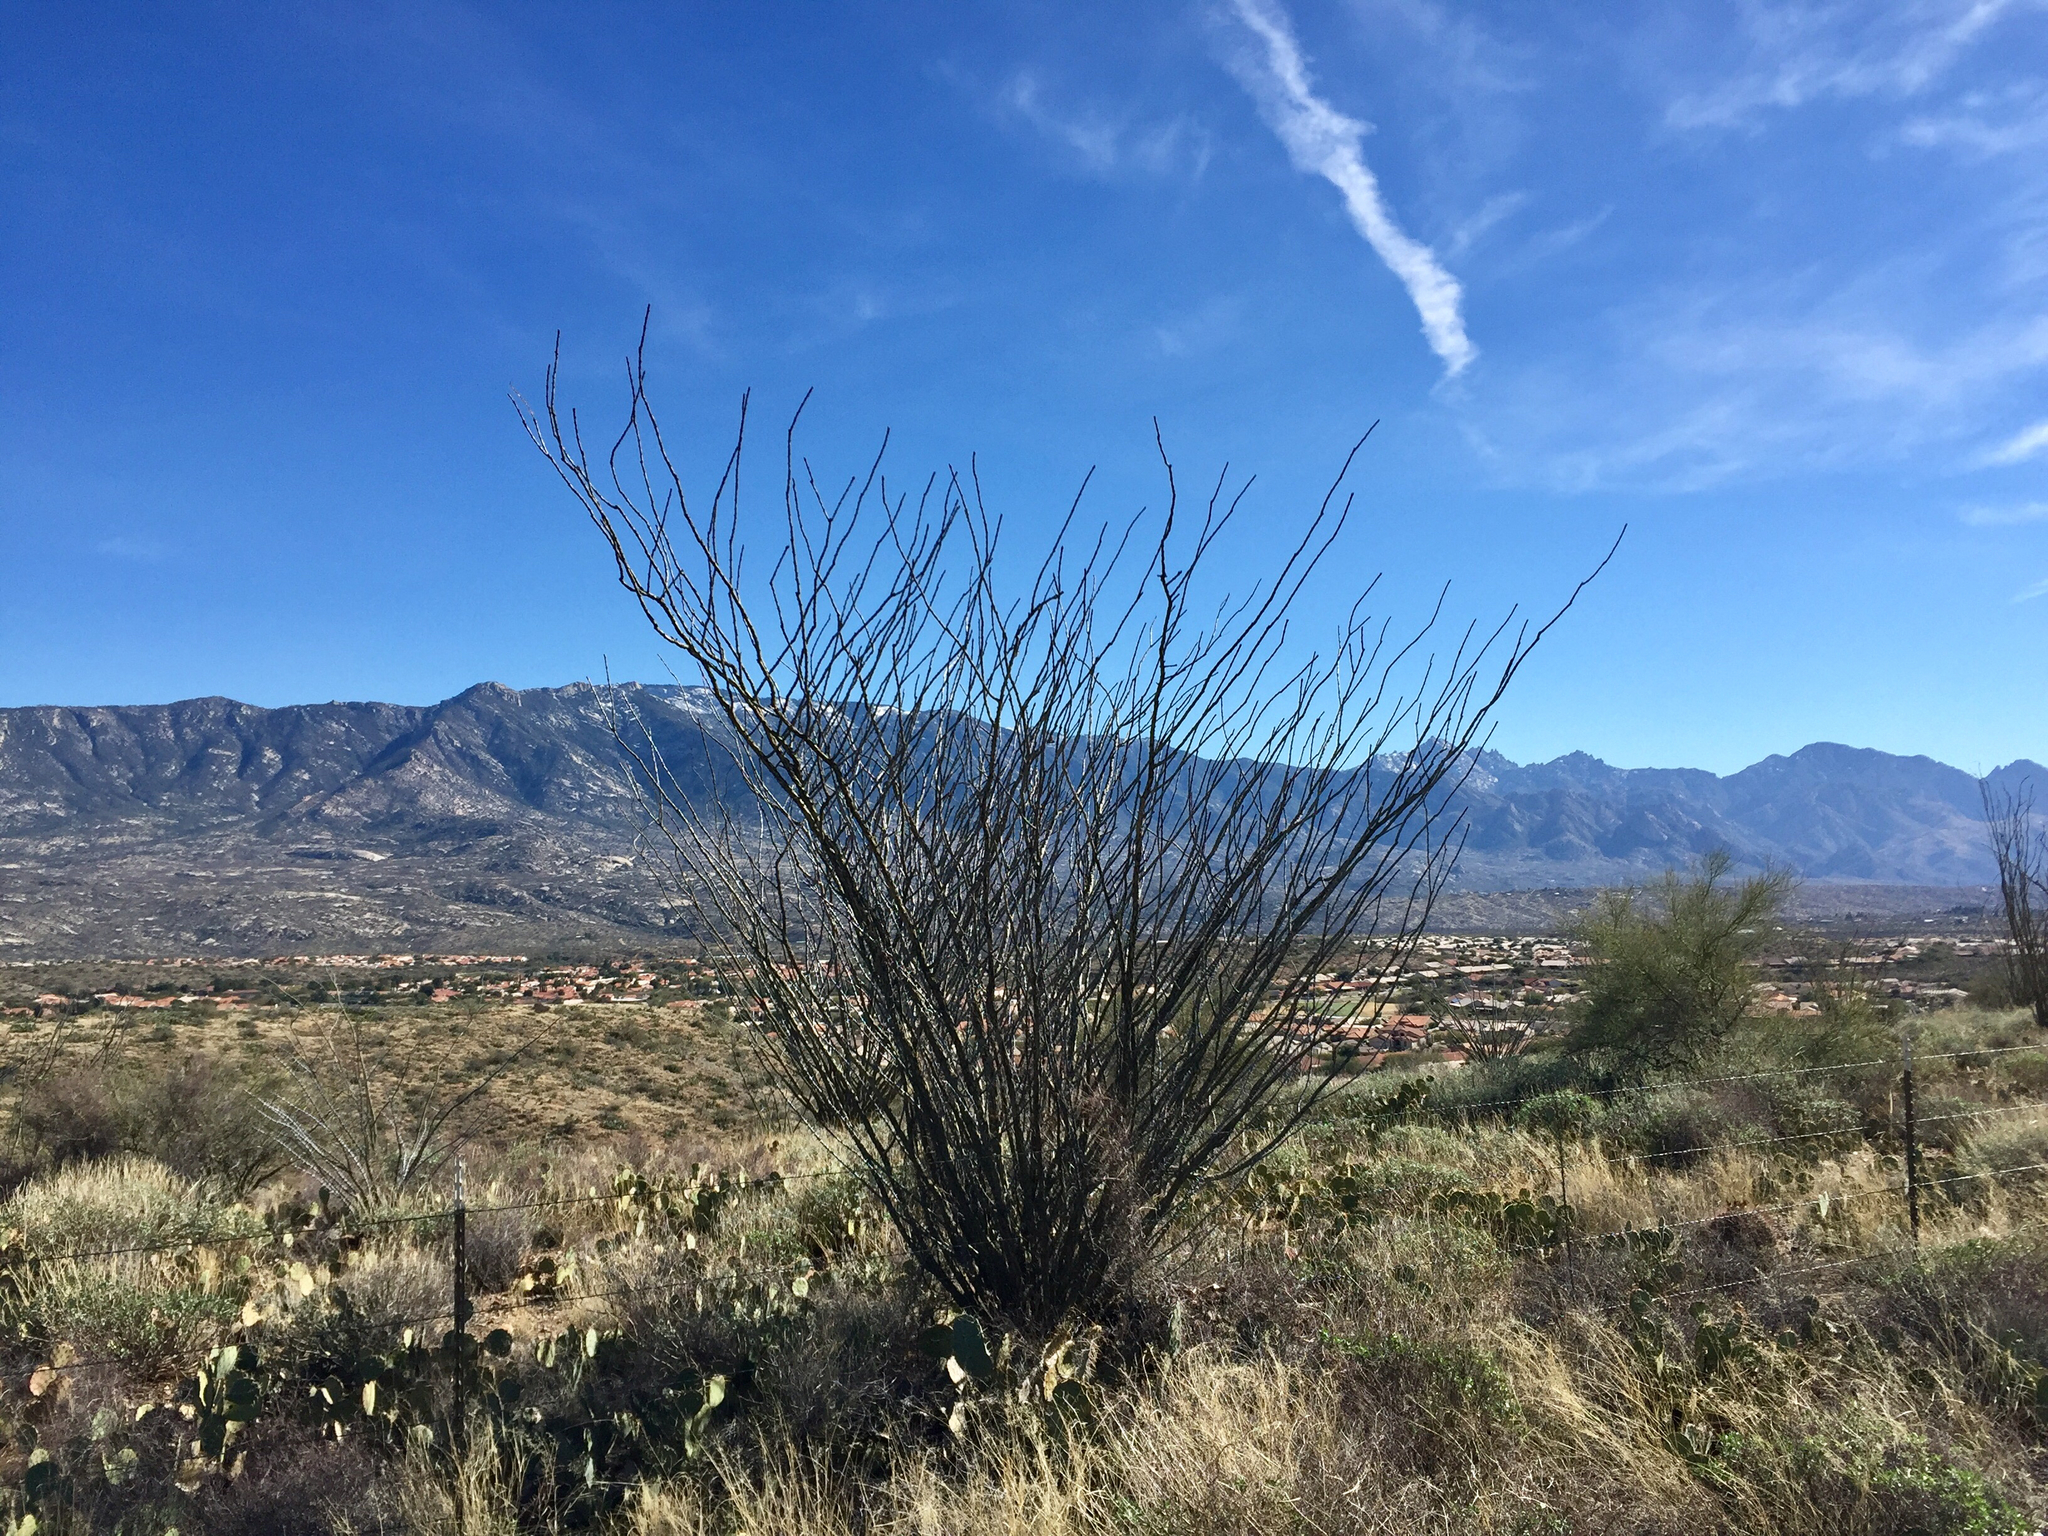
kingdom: Plantae
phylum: Tracheophyta
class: Magnoliopsida
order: Ericales
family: Fouquieriaceae
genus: Fouquieria
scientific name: Fouquieria splendens
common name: Vine-cactus
